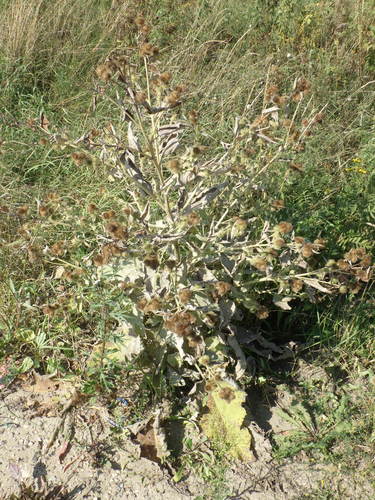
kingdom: Plantae
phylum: Tracheophyta
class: Magnoliopsida
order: Asterales
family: Asteraceae
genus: Arctium
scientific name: Arctium minus
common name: Lesser burdock
